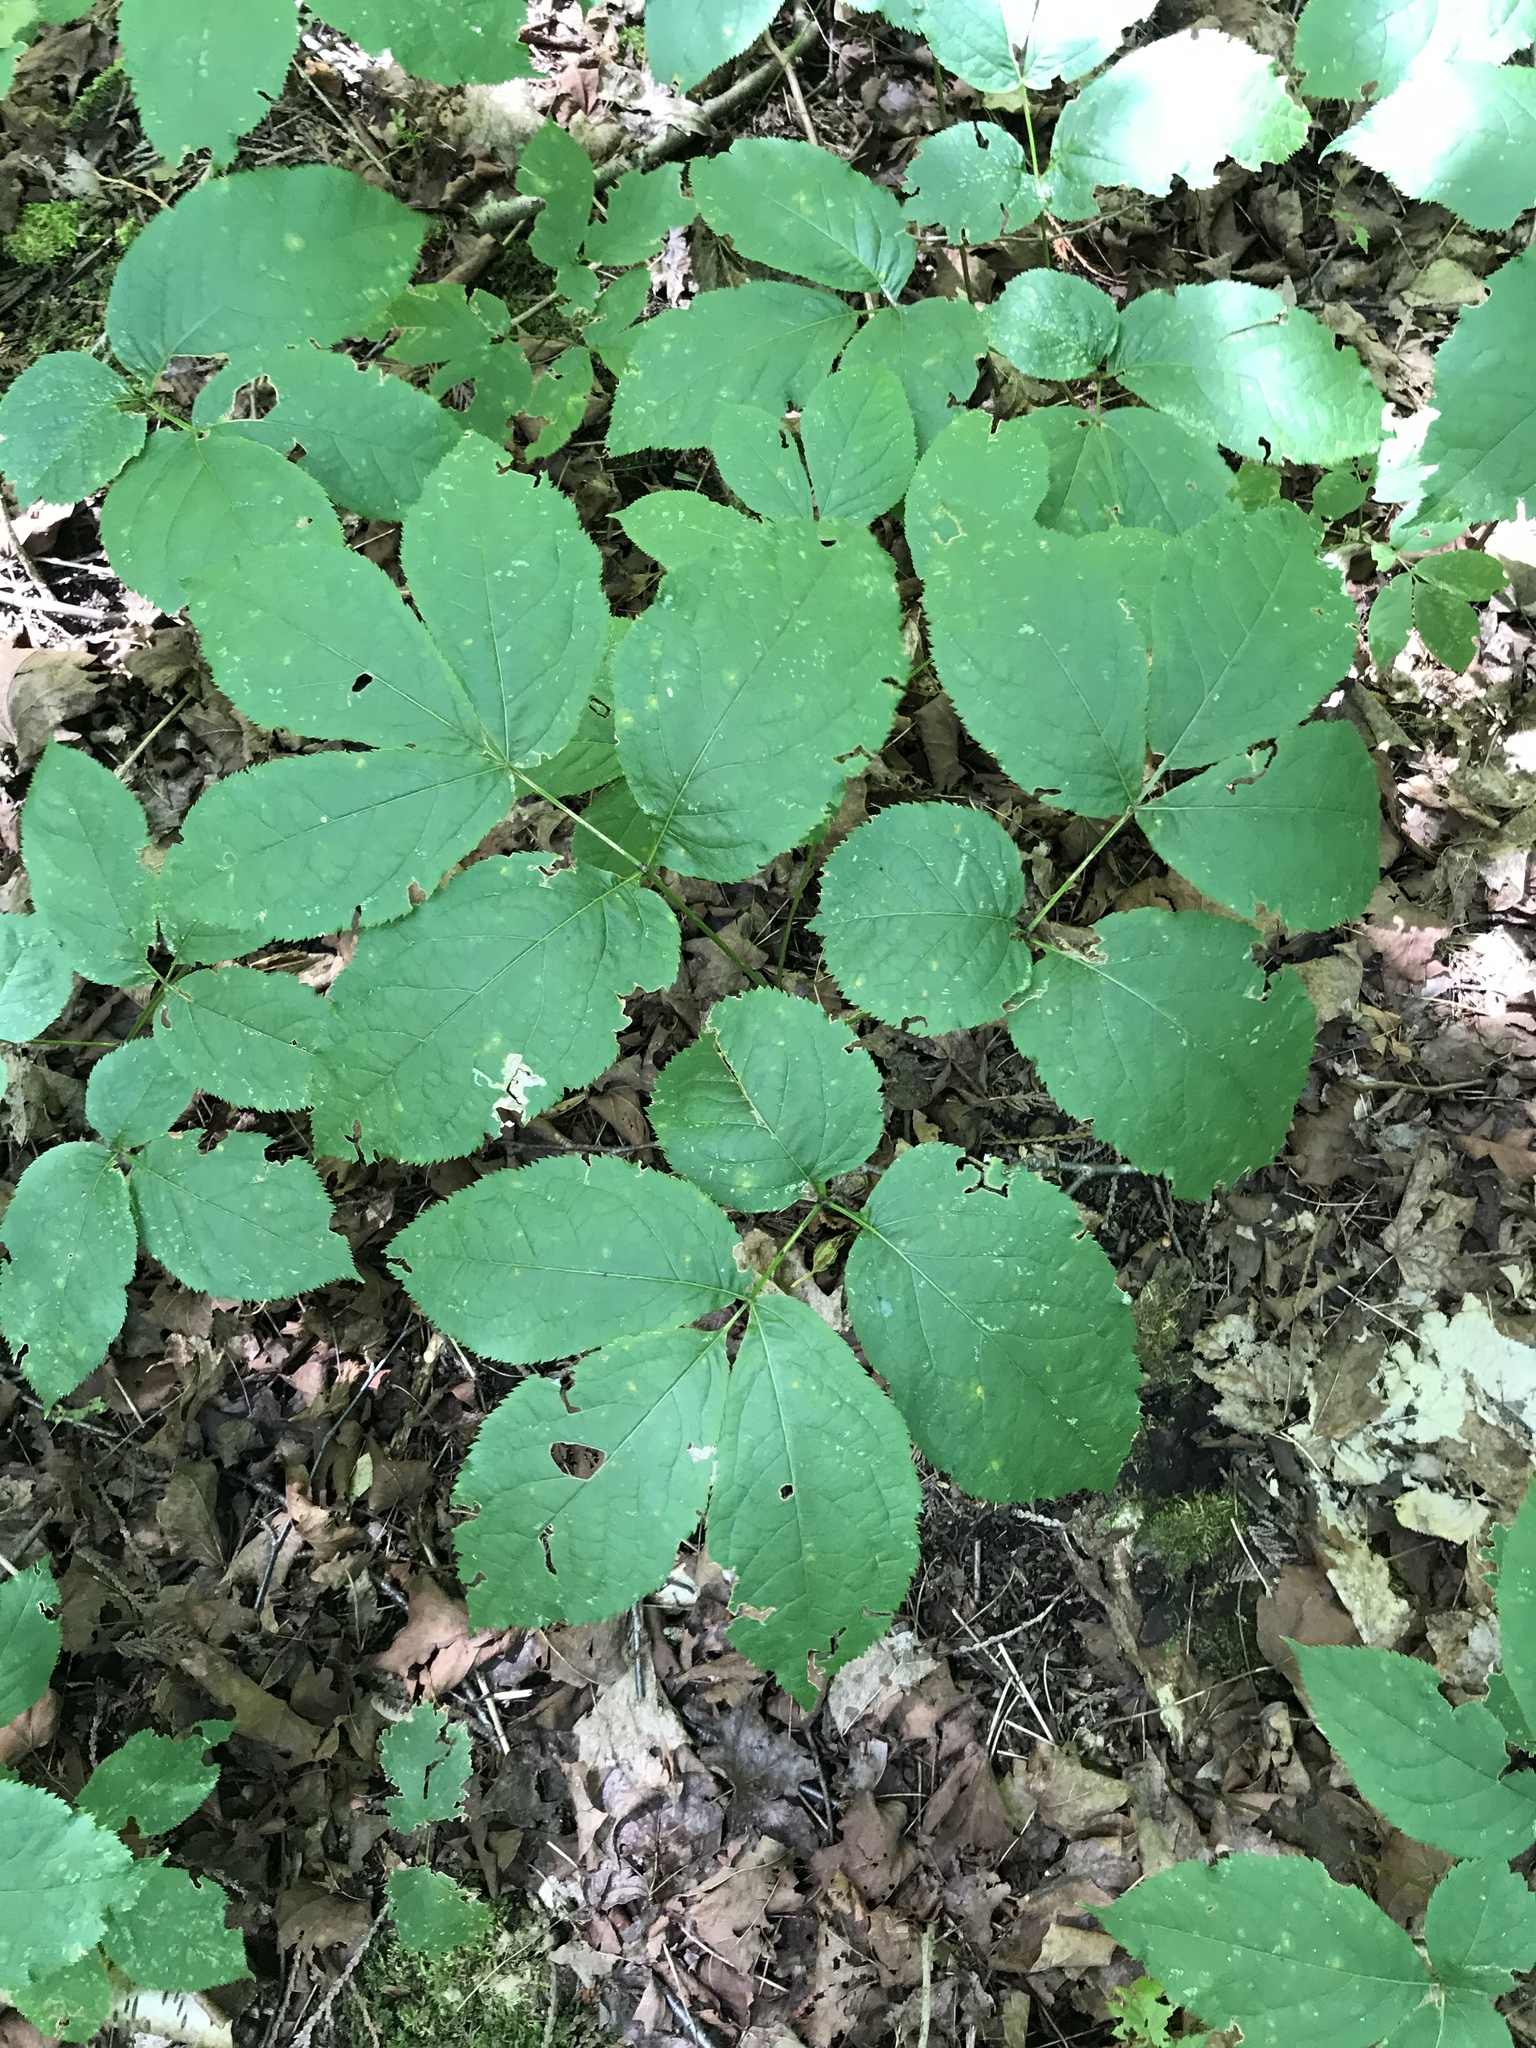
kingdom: Plantae
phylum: Tracheophyta
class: Magnoliopsida
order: Apiales
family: Araliaceae
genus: Aralia
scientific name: Aralia nudicaulis
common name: Wild sarsaparilla
